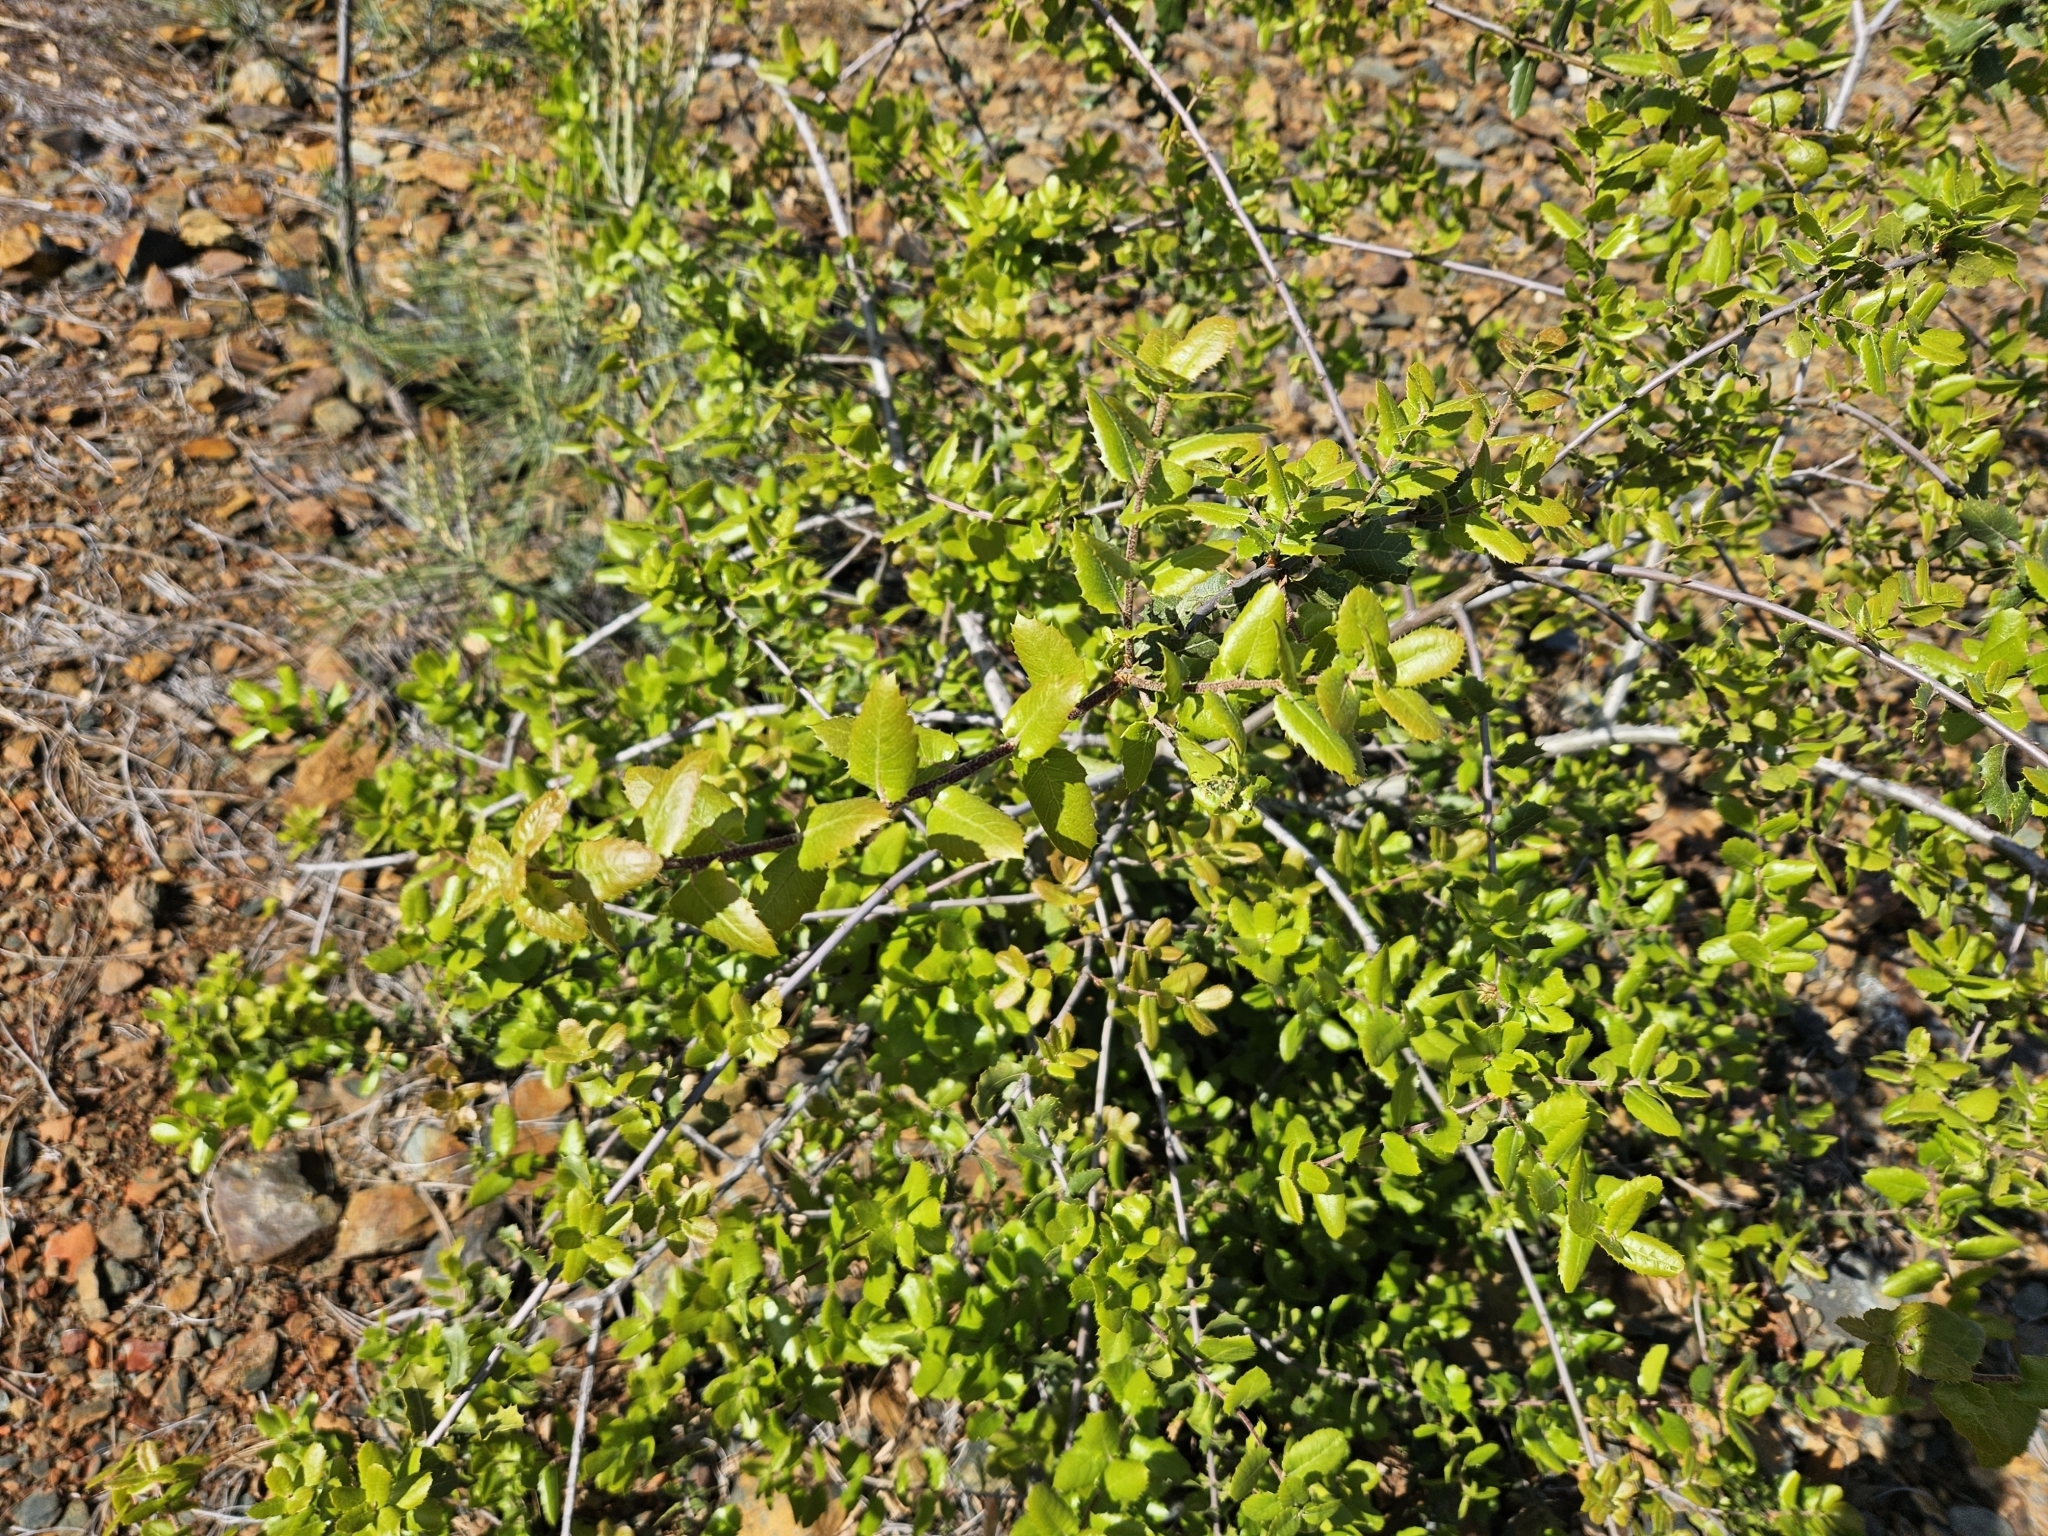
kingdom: Plantae
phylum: Tracheophyta
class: Magnoliopsida
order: Fagales
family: Fagaceae
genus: Quercus
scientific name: Quercus wislizeni
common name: Interior live oak
